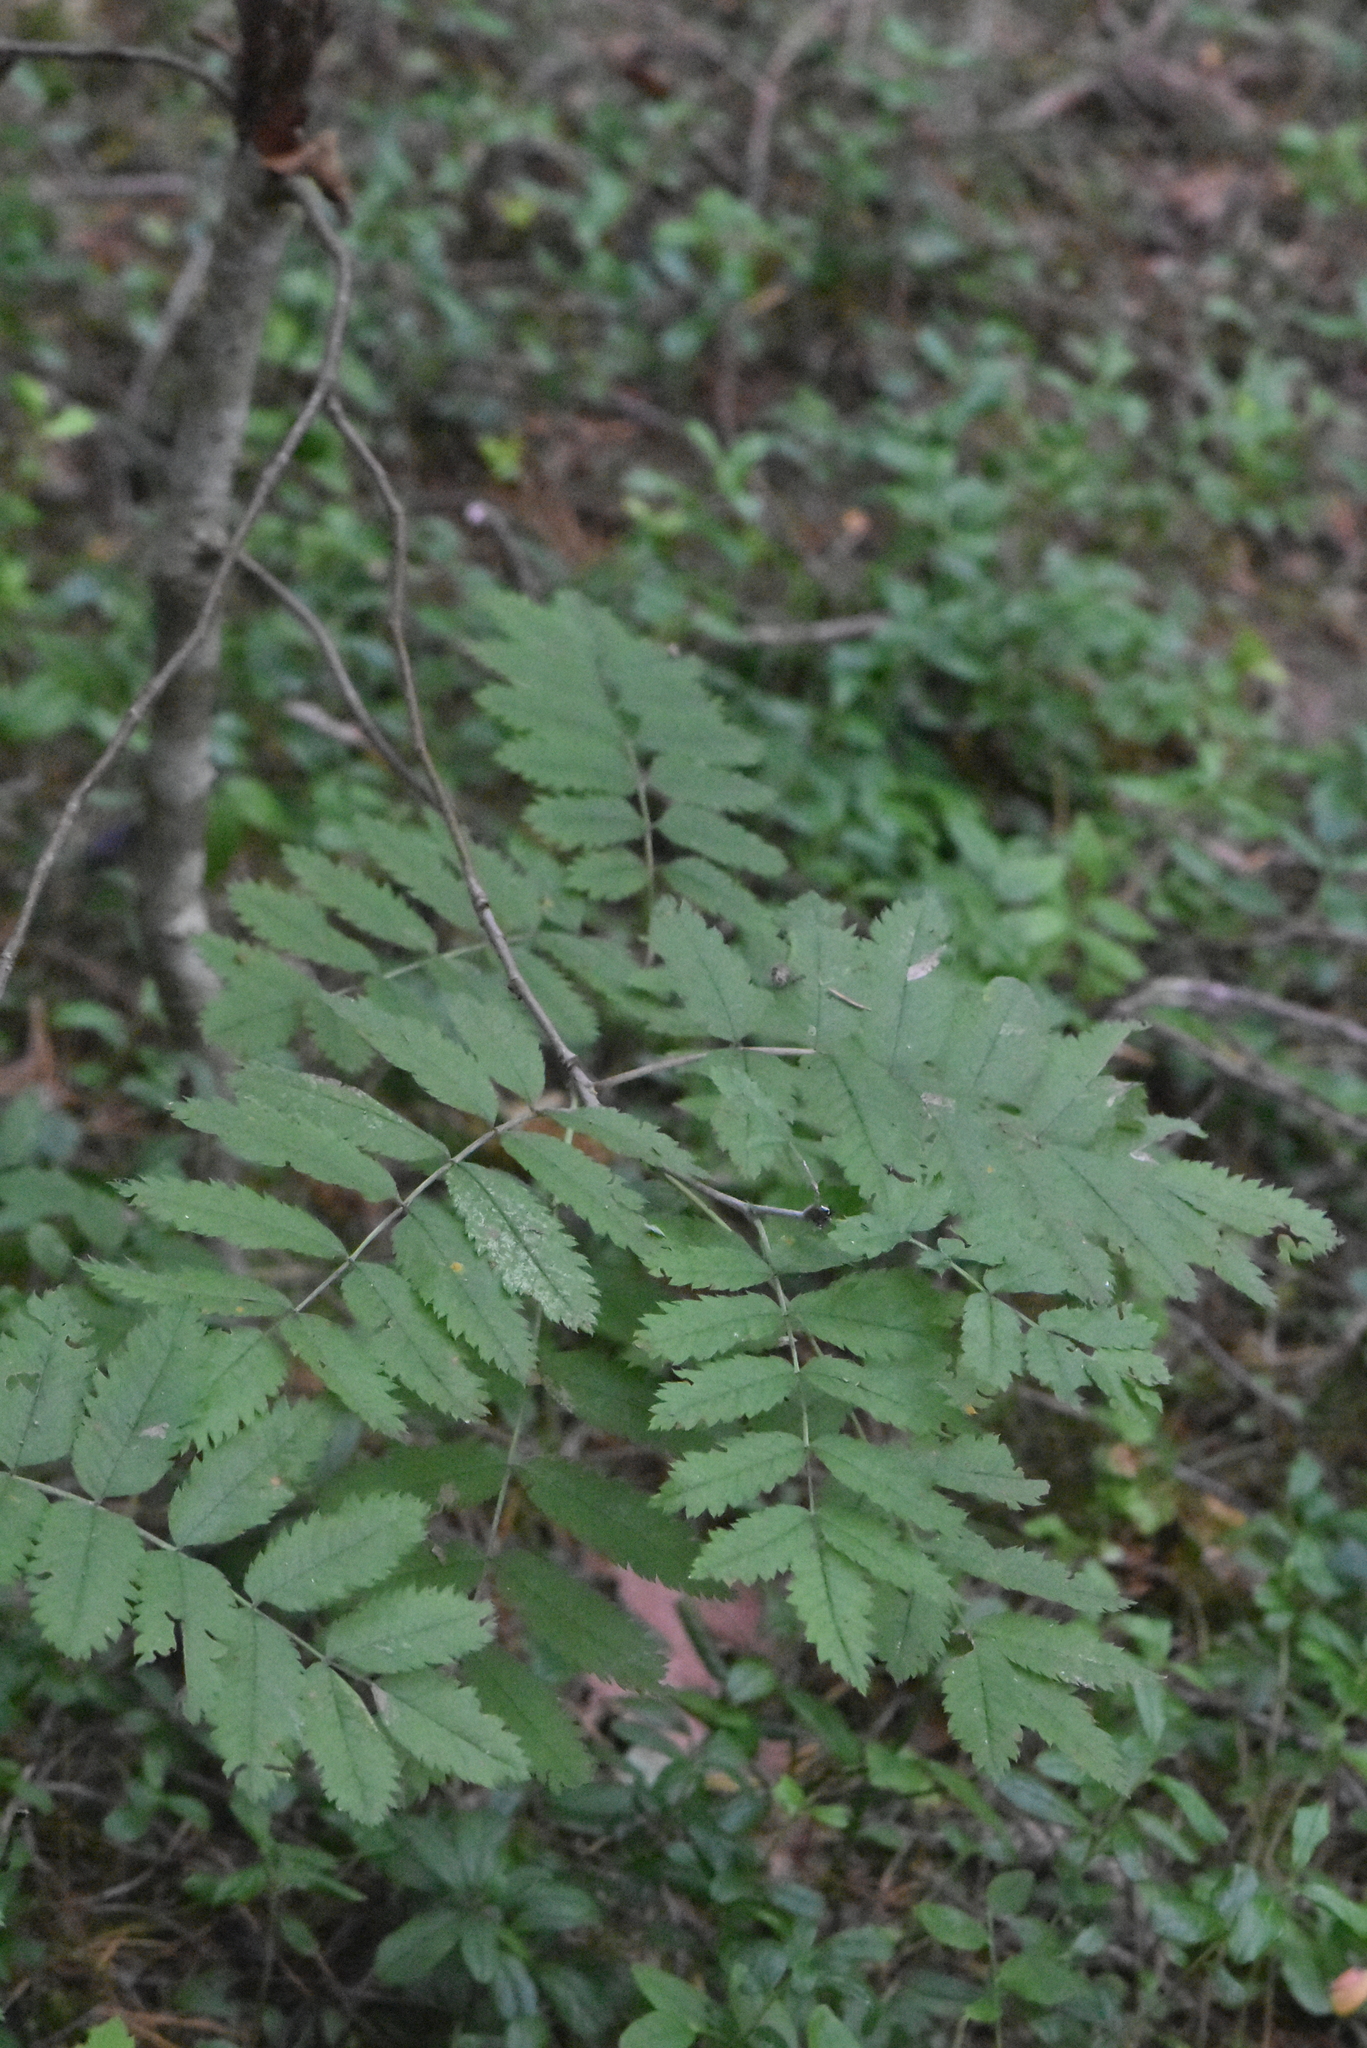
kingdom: Plantae
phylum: Tracheophyta
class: Magnoliopsida
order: Rosales
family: Rosaceae
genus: Sorbus
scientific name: Sorbus aucuparia
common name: Rowan
